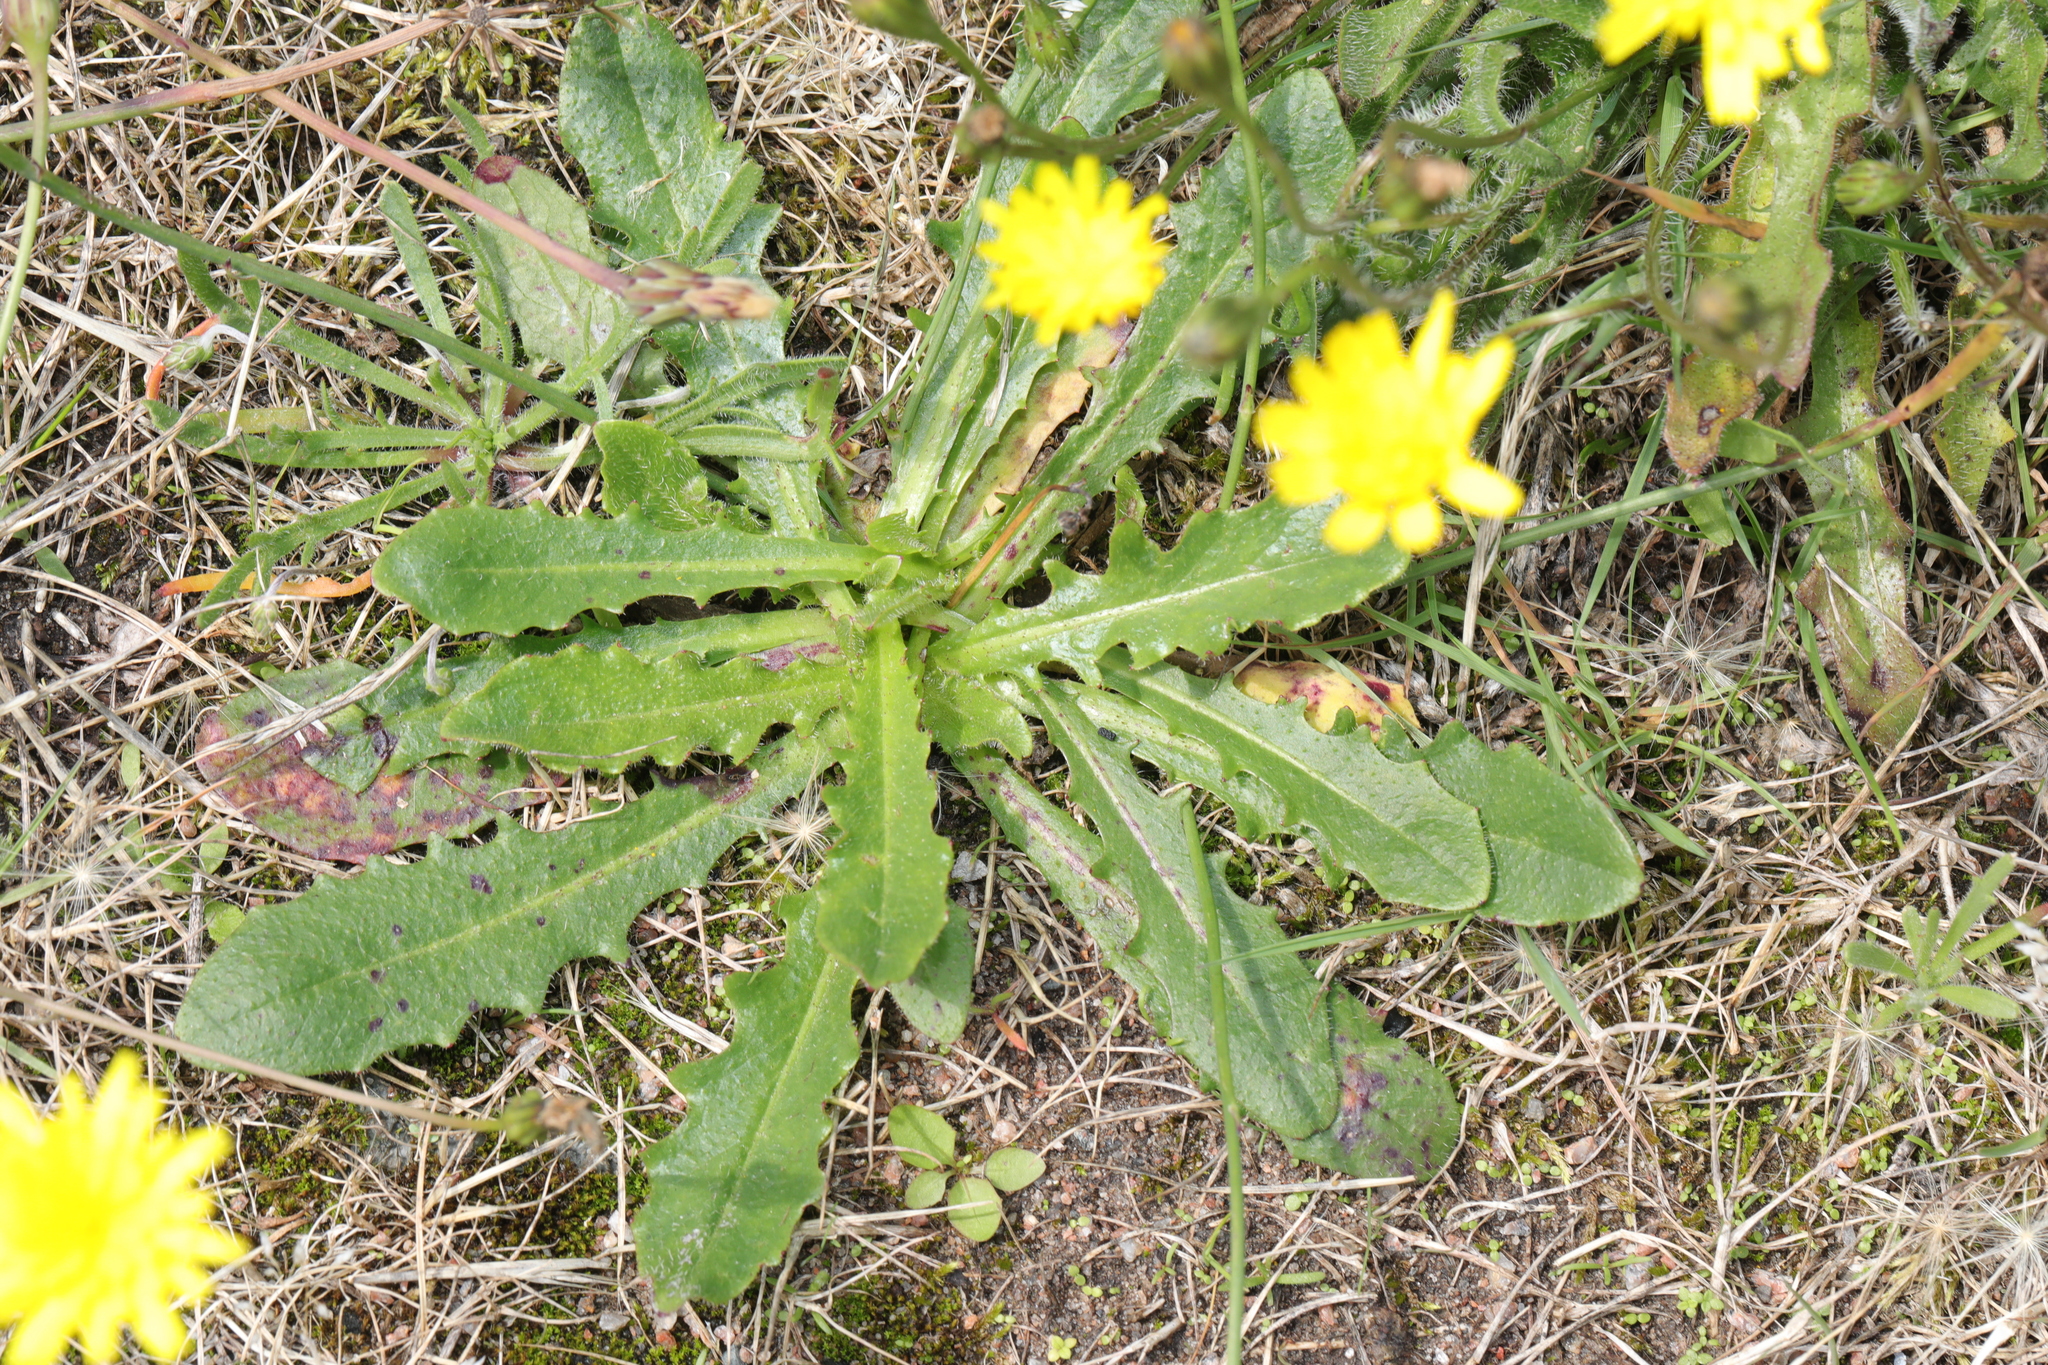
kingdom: Plantae
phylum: Tracheophyta
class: Magnoliopsida
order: Asterales
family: Asteraceae
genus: Hypochaeris
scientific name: Hypochaeris radicata
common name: Flatweed
